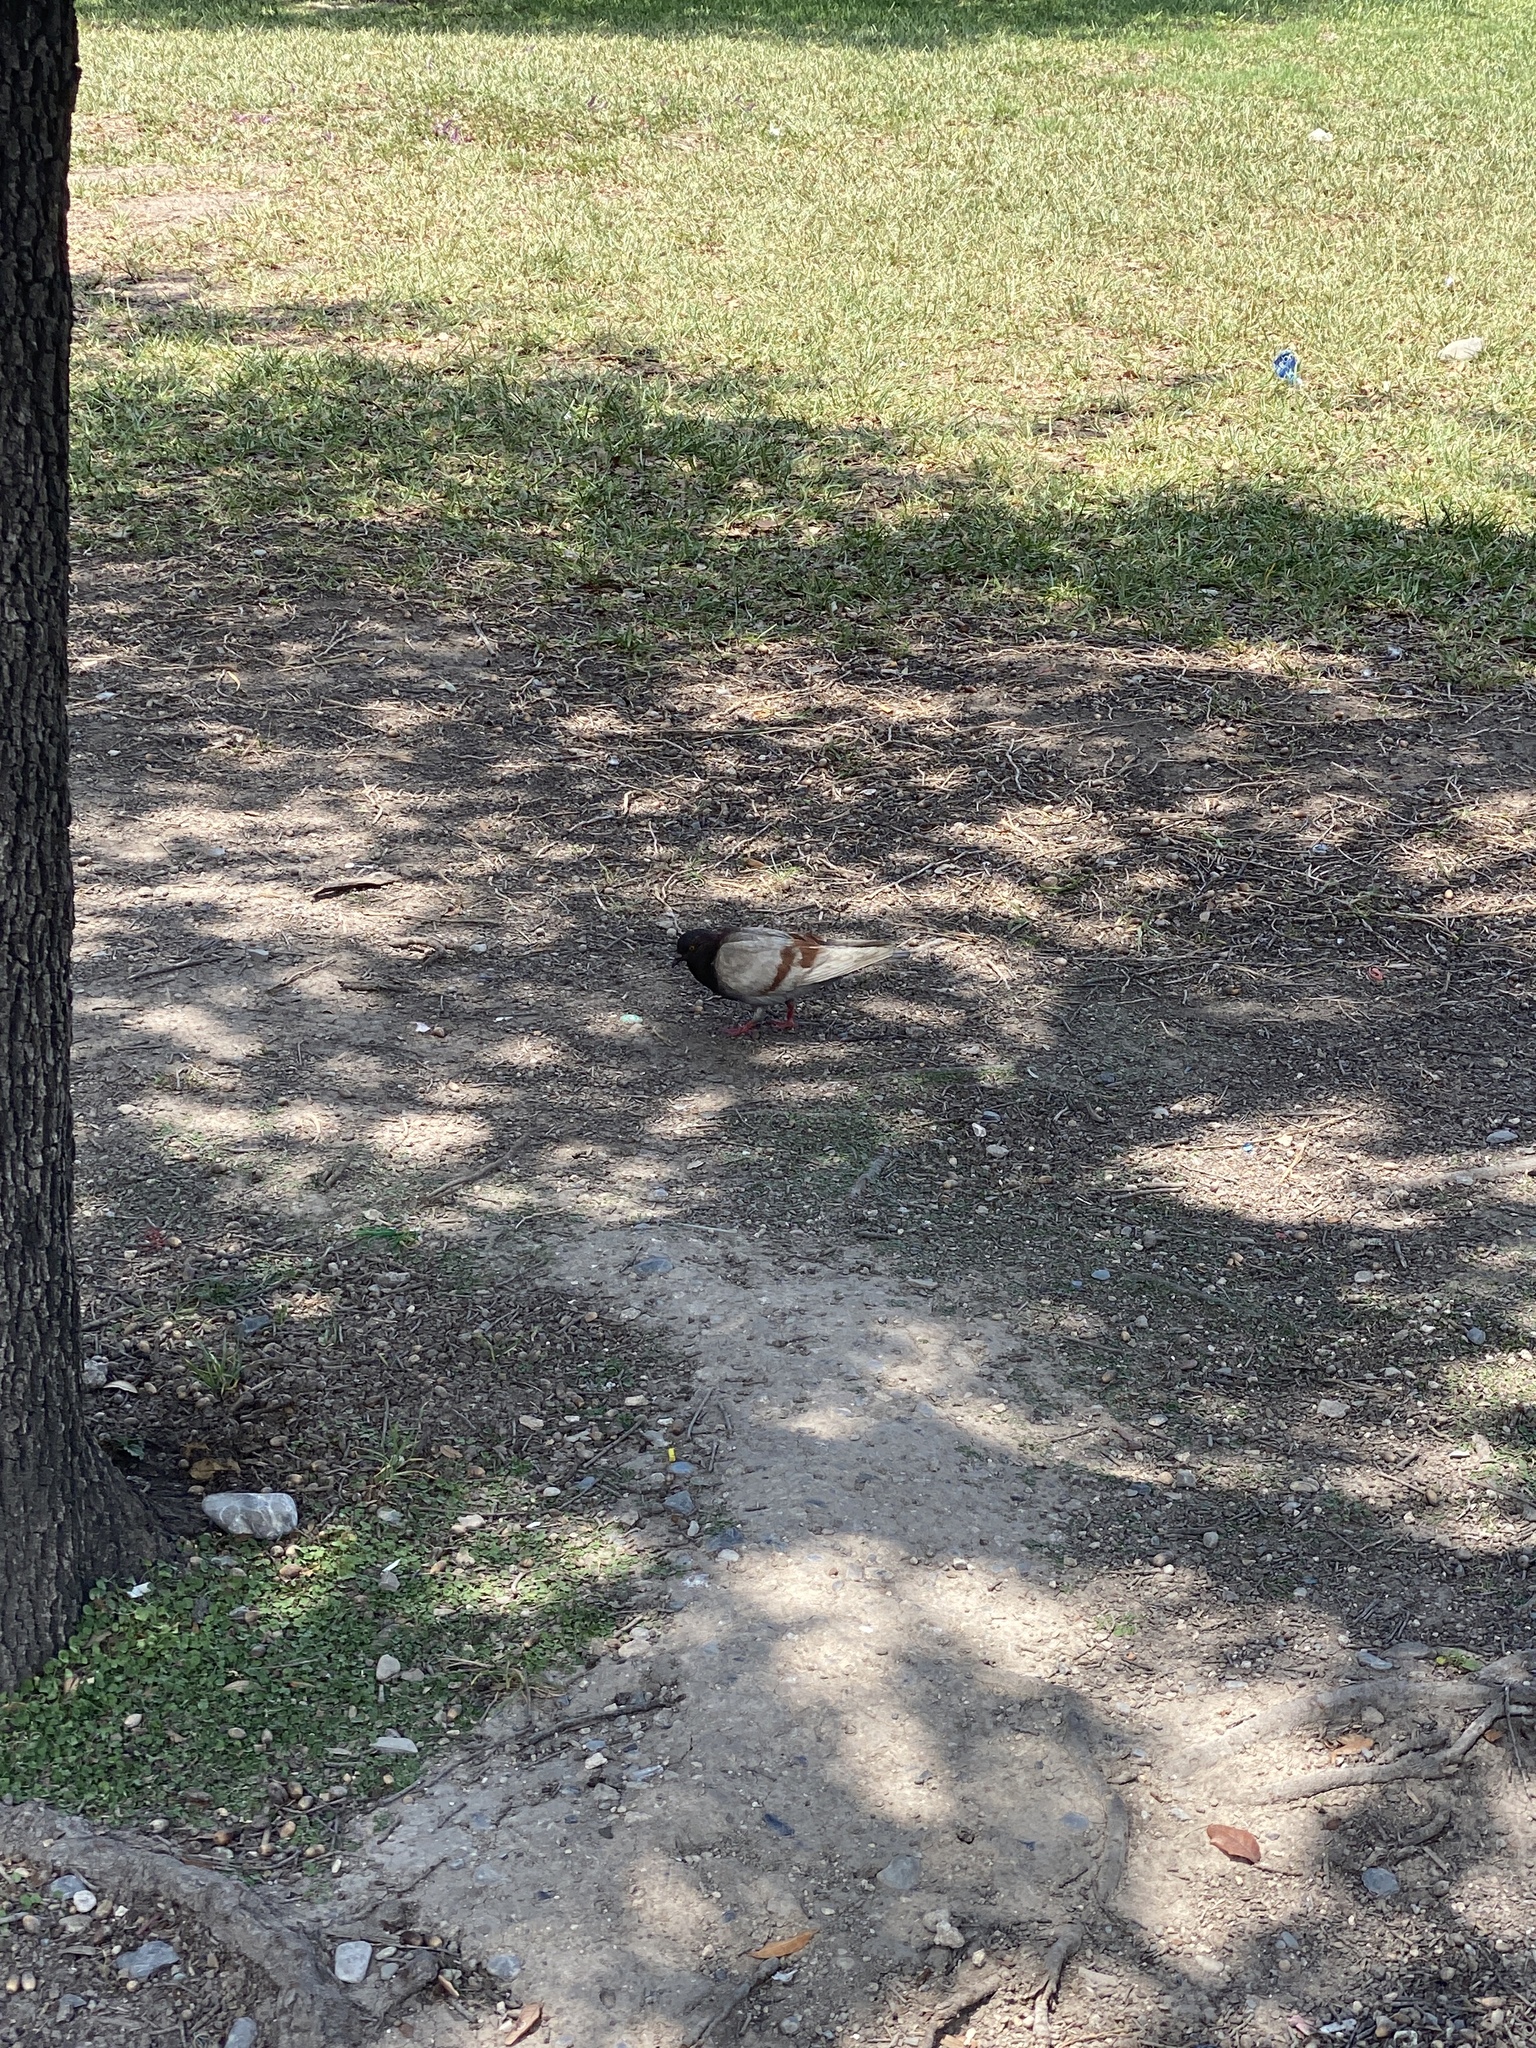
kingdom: Animalia
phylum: Chordata
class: Aves
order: Columbiformes
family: Columbidae
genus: Columba
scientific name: Columba livia
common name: Rock pigeon
